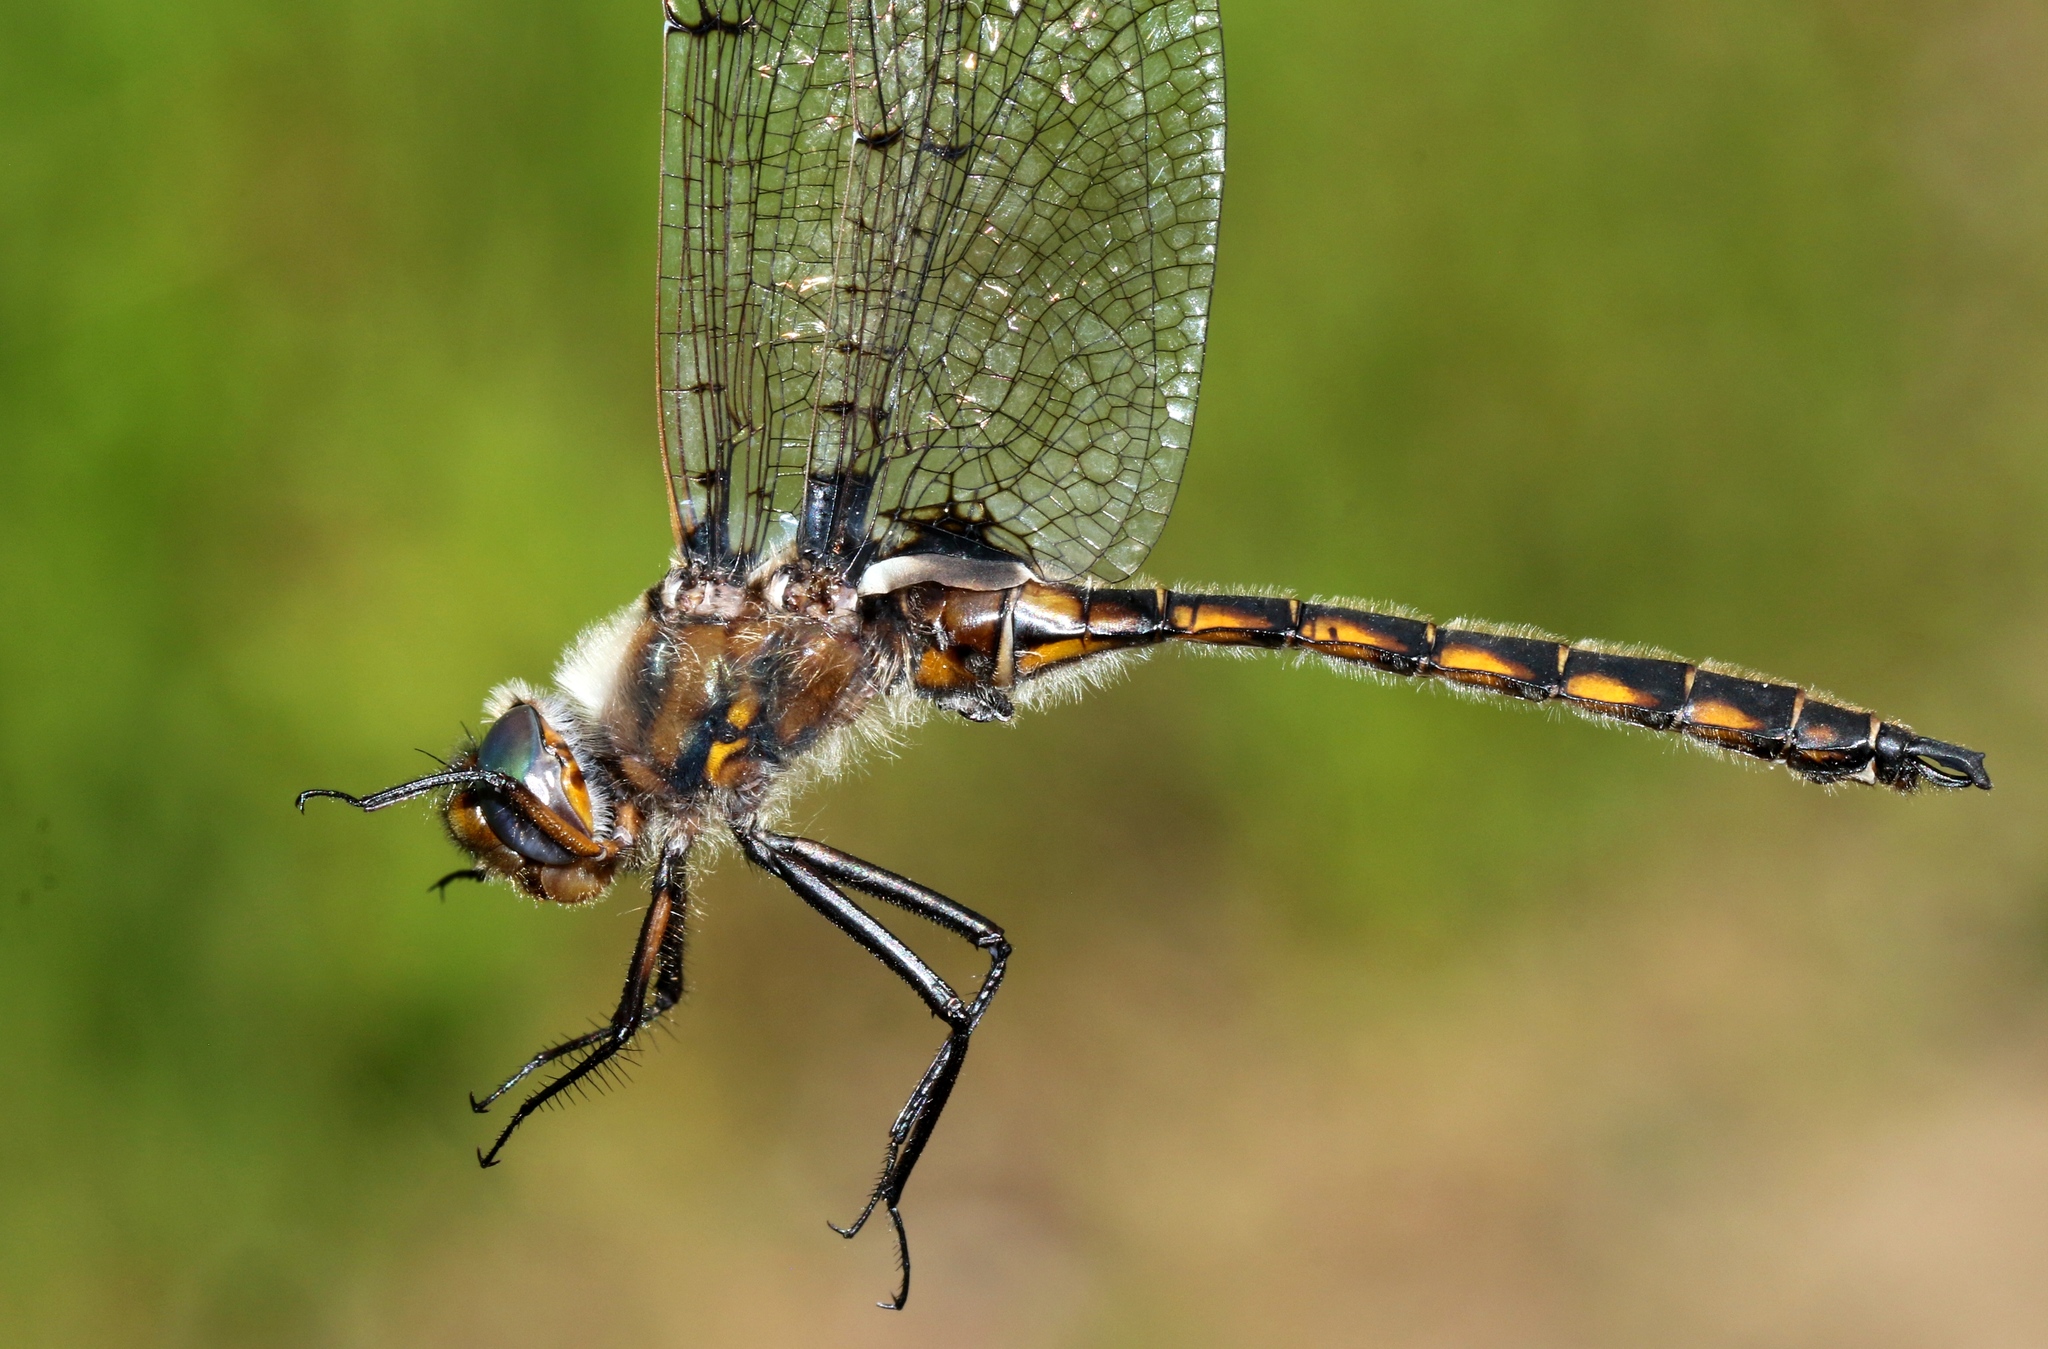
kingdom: Animalia
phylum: Arthropoda
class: Insecta
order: Odonata
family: Corduliidae
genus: Epitheca
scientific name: Epitheca canis
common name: Beaverpond baskettail
